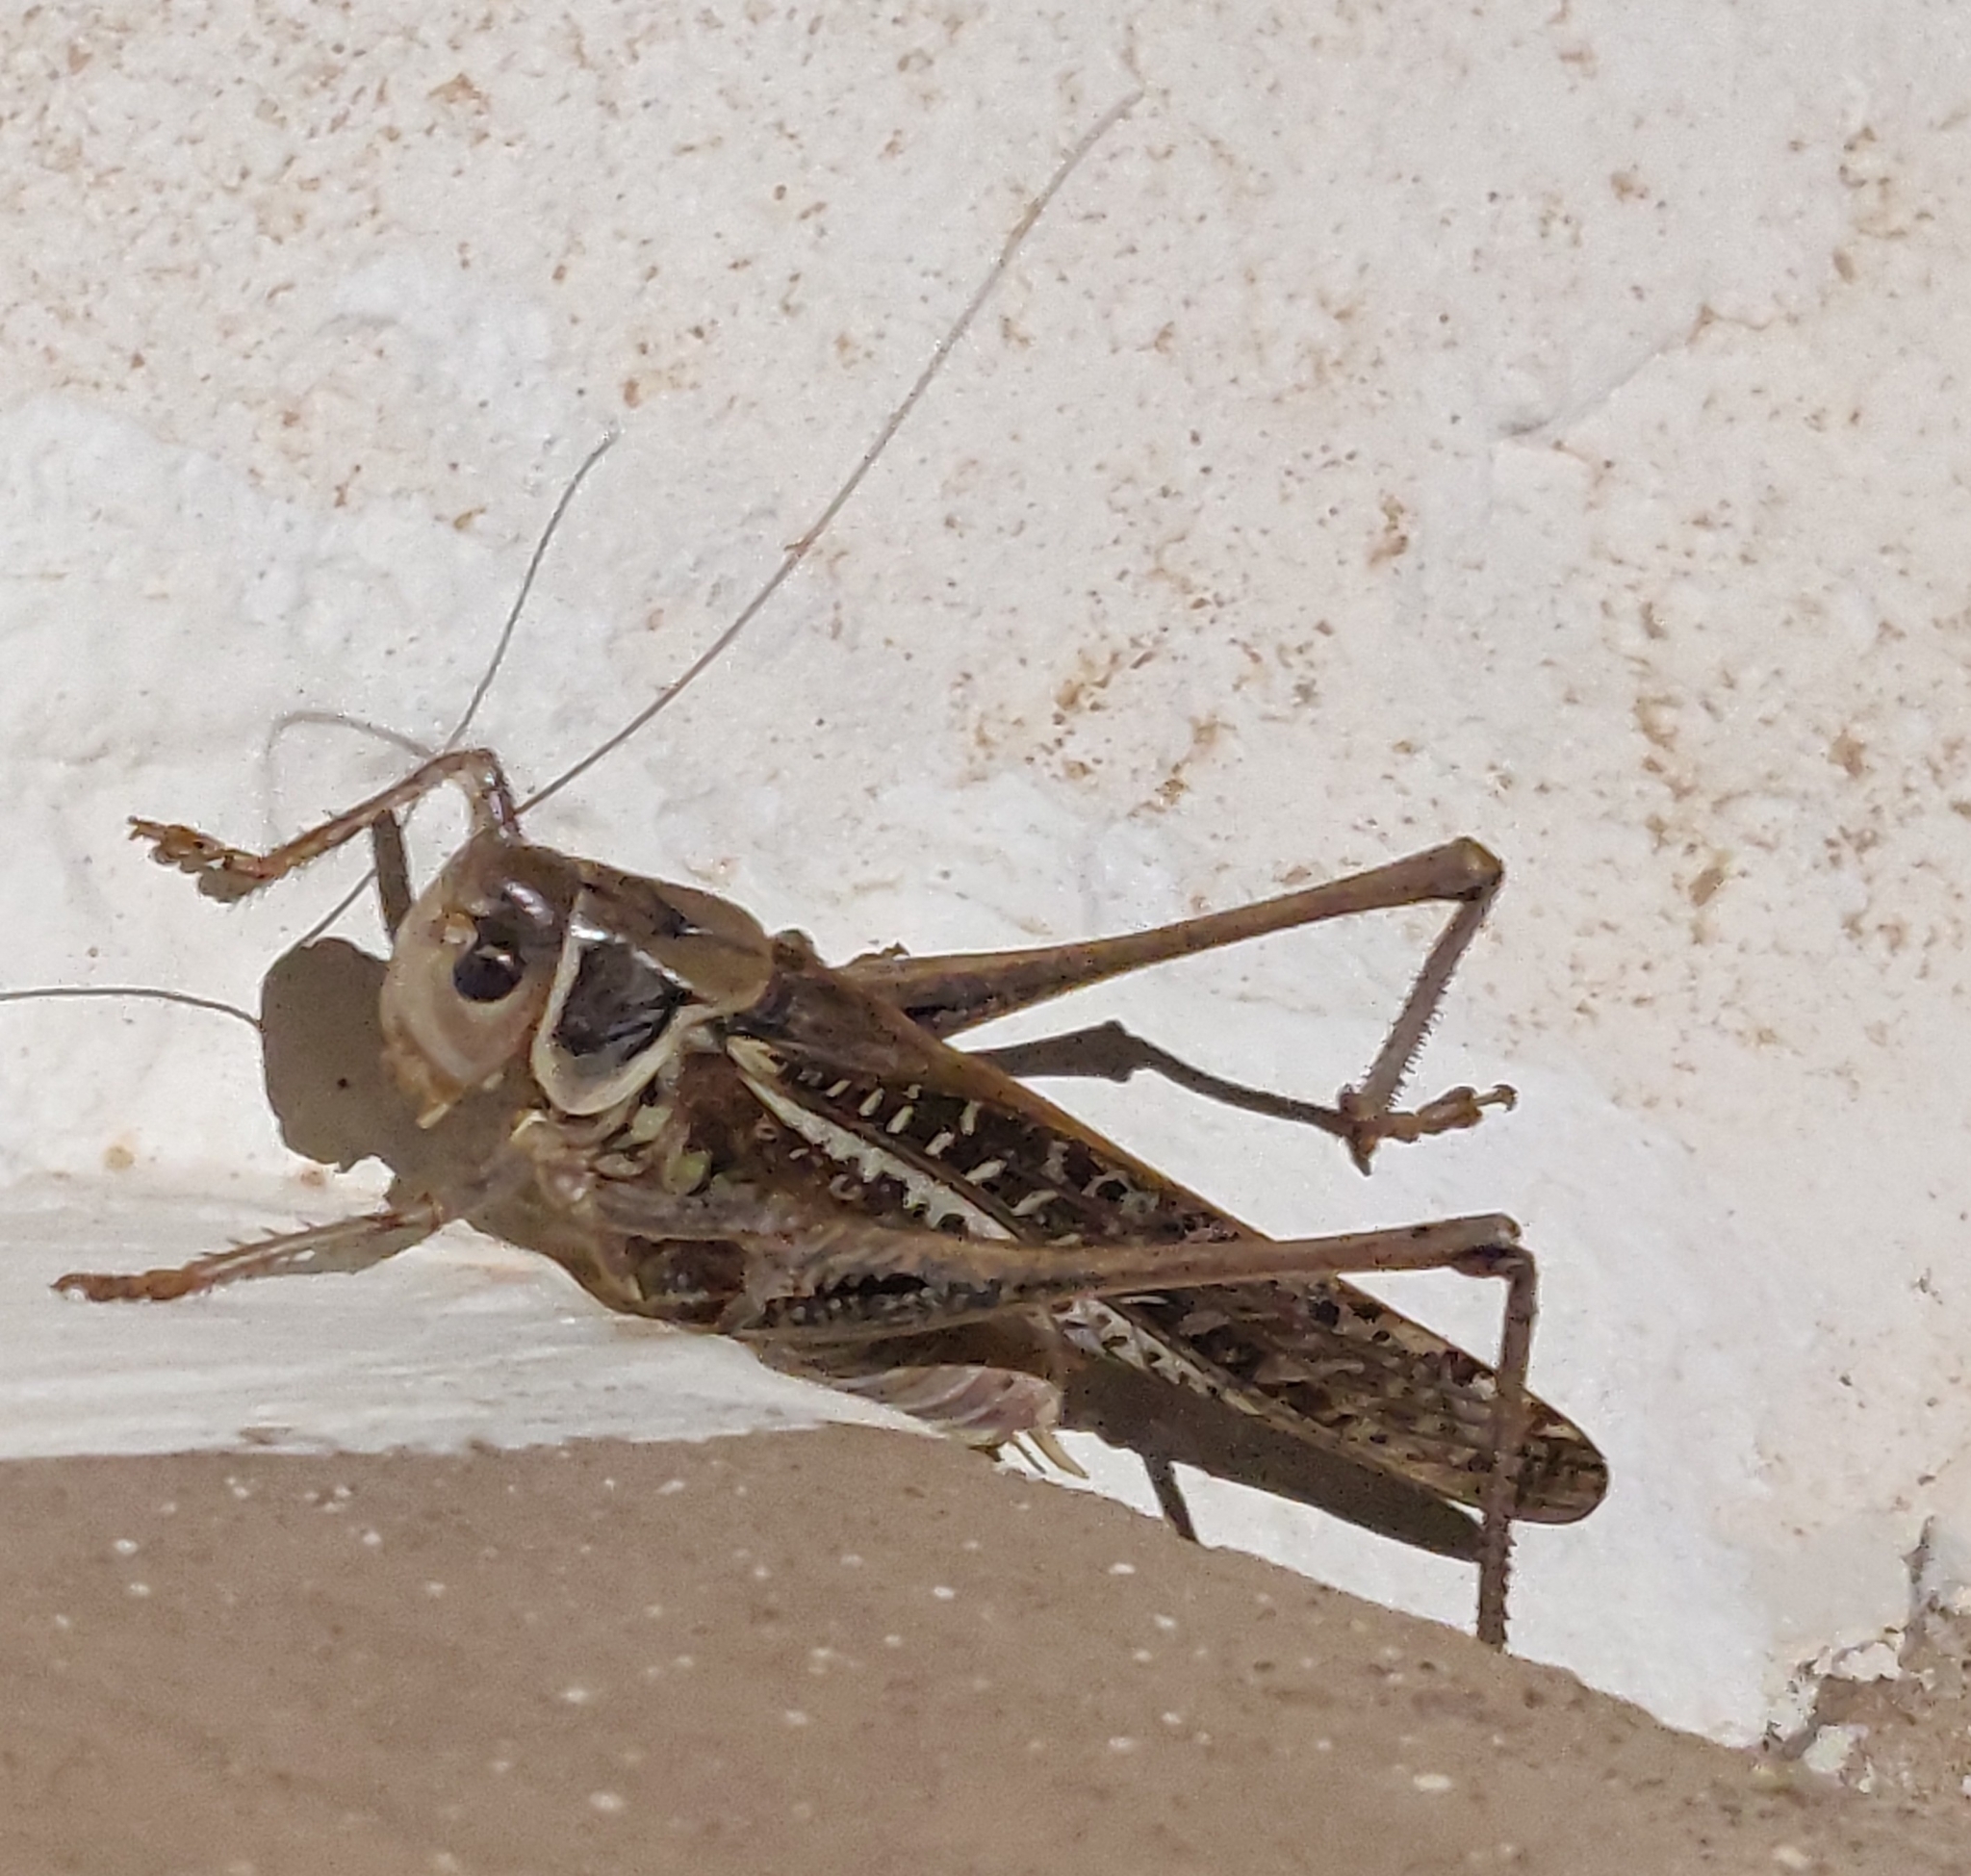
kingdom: Animalia
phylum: Arthropoda
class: Insecta
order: Orthoptera
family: Tettigoniidae
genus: Decticus
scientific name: Decticus albifrons
